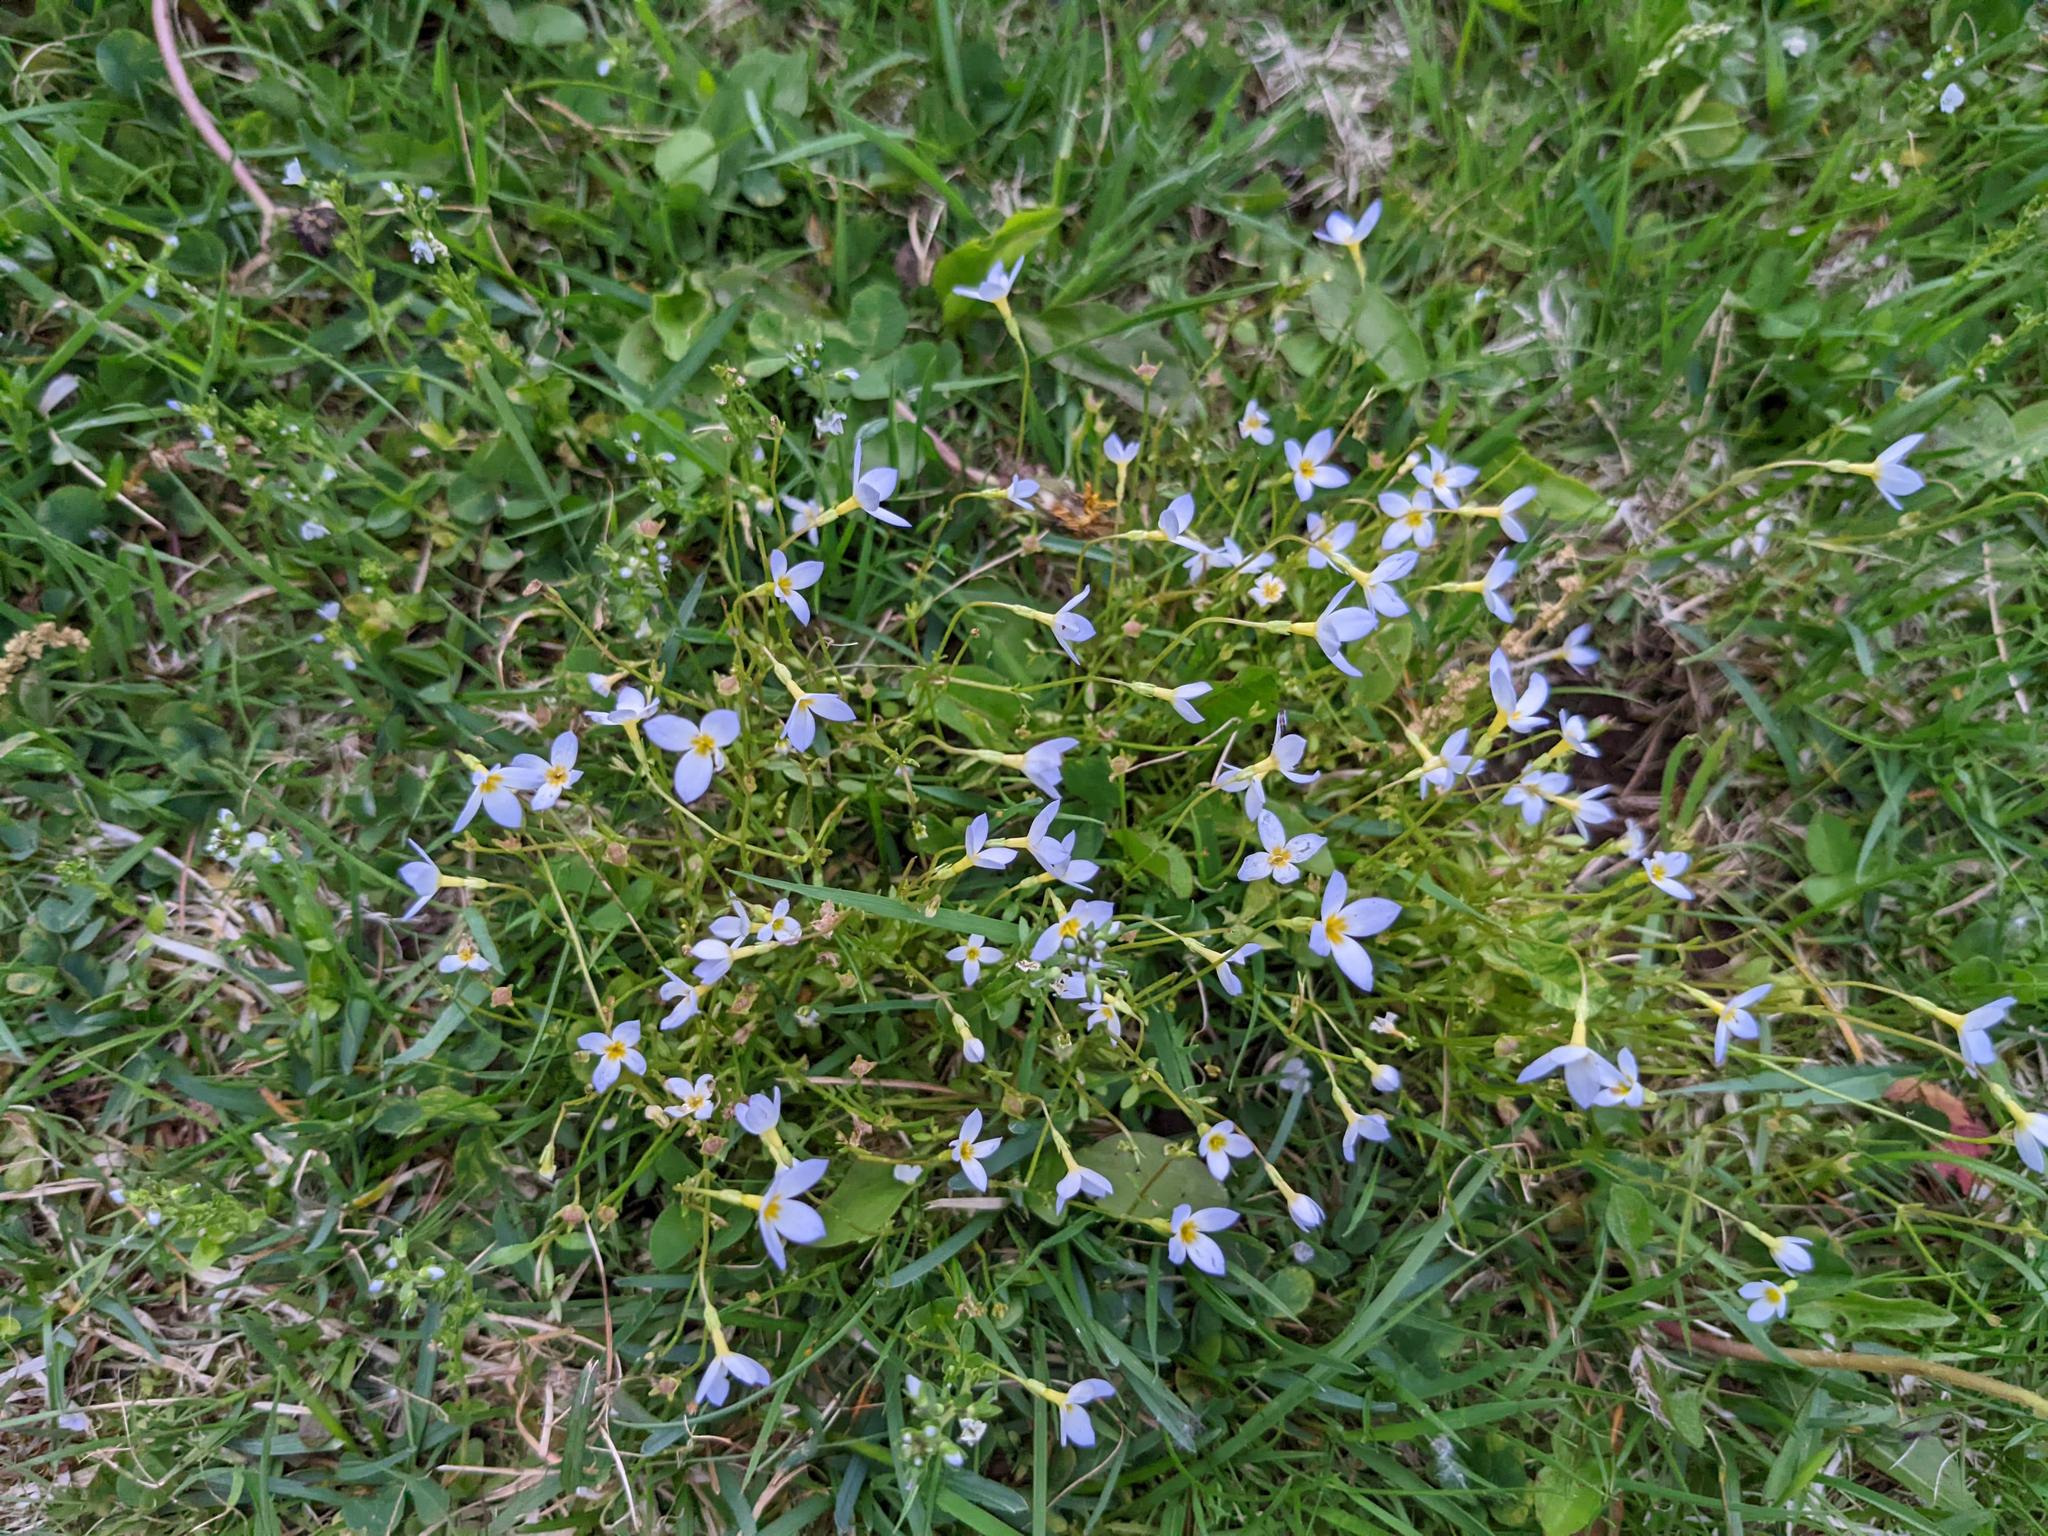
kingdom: Plantae
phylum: Tracheophyta
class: Magnoliopsida
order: Gentianales
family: Rubiaceae
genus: Houstonia
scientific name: Houstonia caerulea
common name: Bluets
